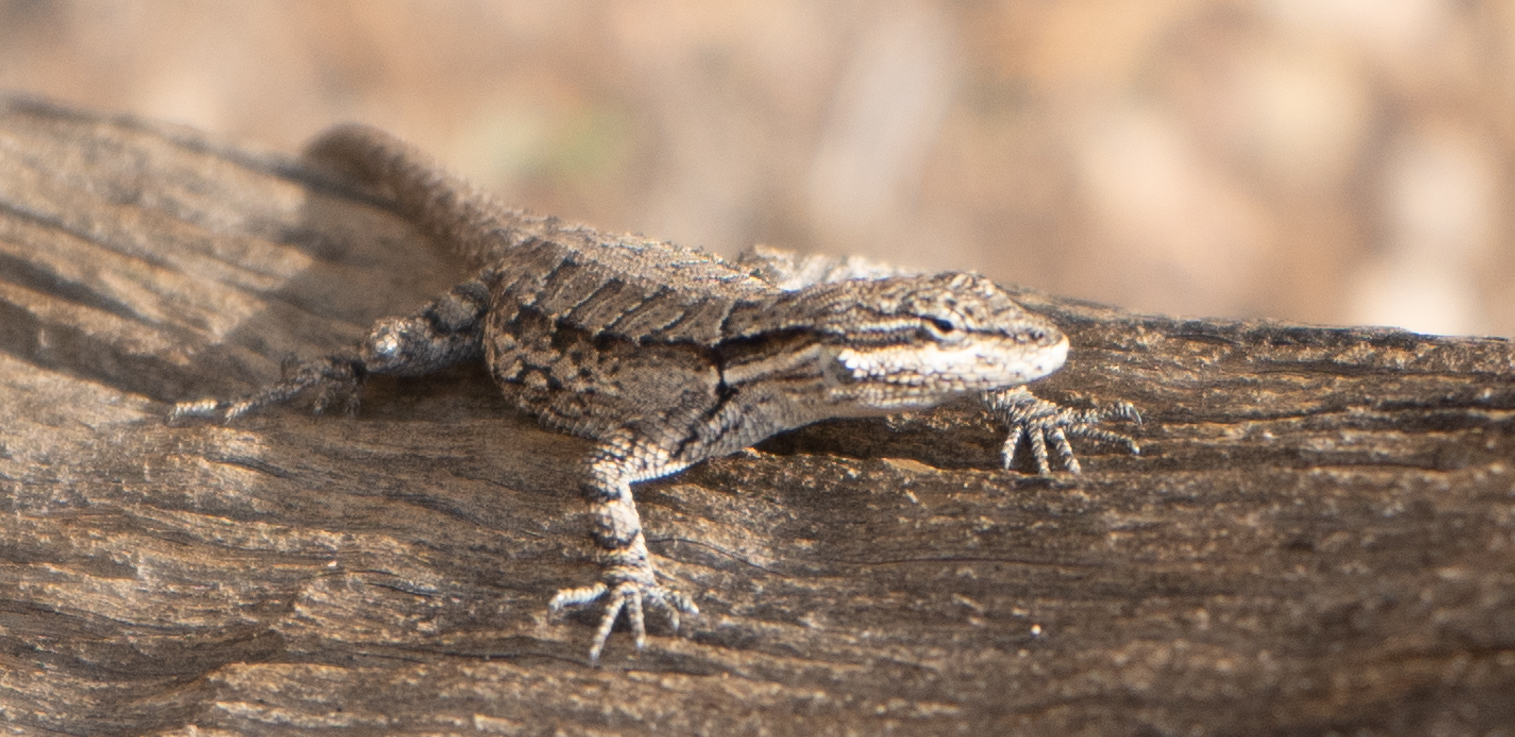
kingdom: Animalia
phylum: Chordata
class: Squamata
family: Phrynosomatidae
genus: Urosaurus
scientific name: Urosaurus ornatus
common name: Ornate tree lizard
